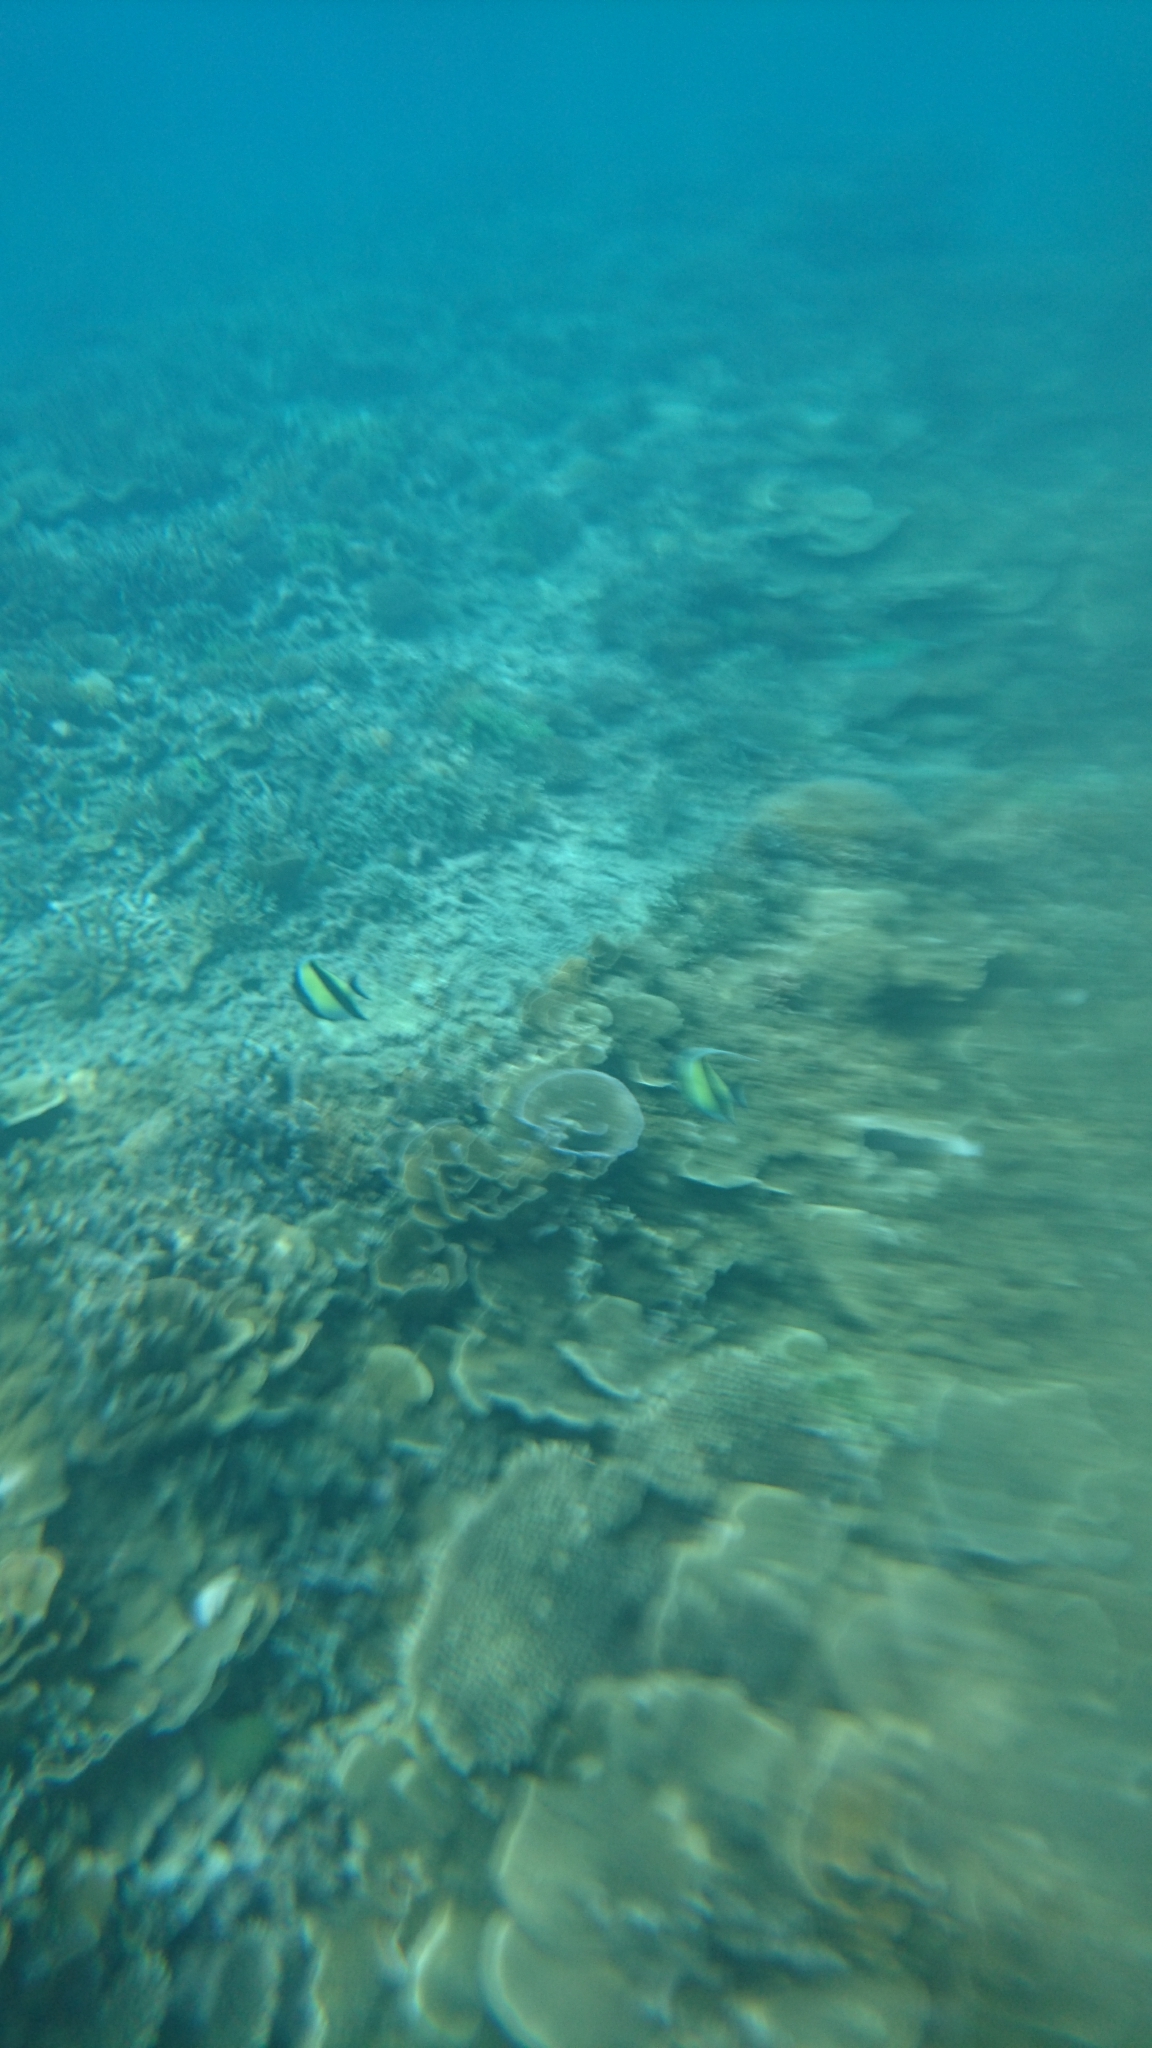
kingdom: Animalia
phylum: Chordata
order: Perciformes
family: Zanclidae
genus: Zanclus
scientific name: Zanclus cornutus
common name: Moorish idol
